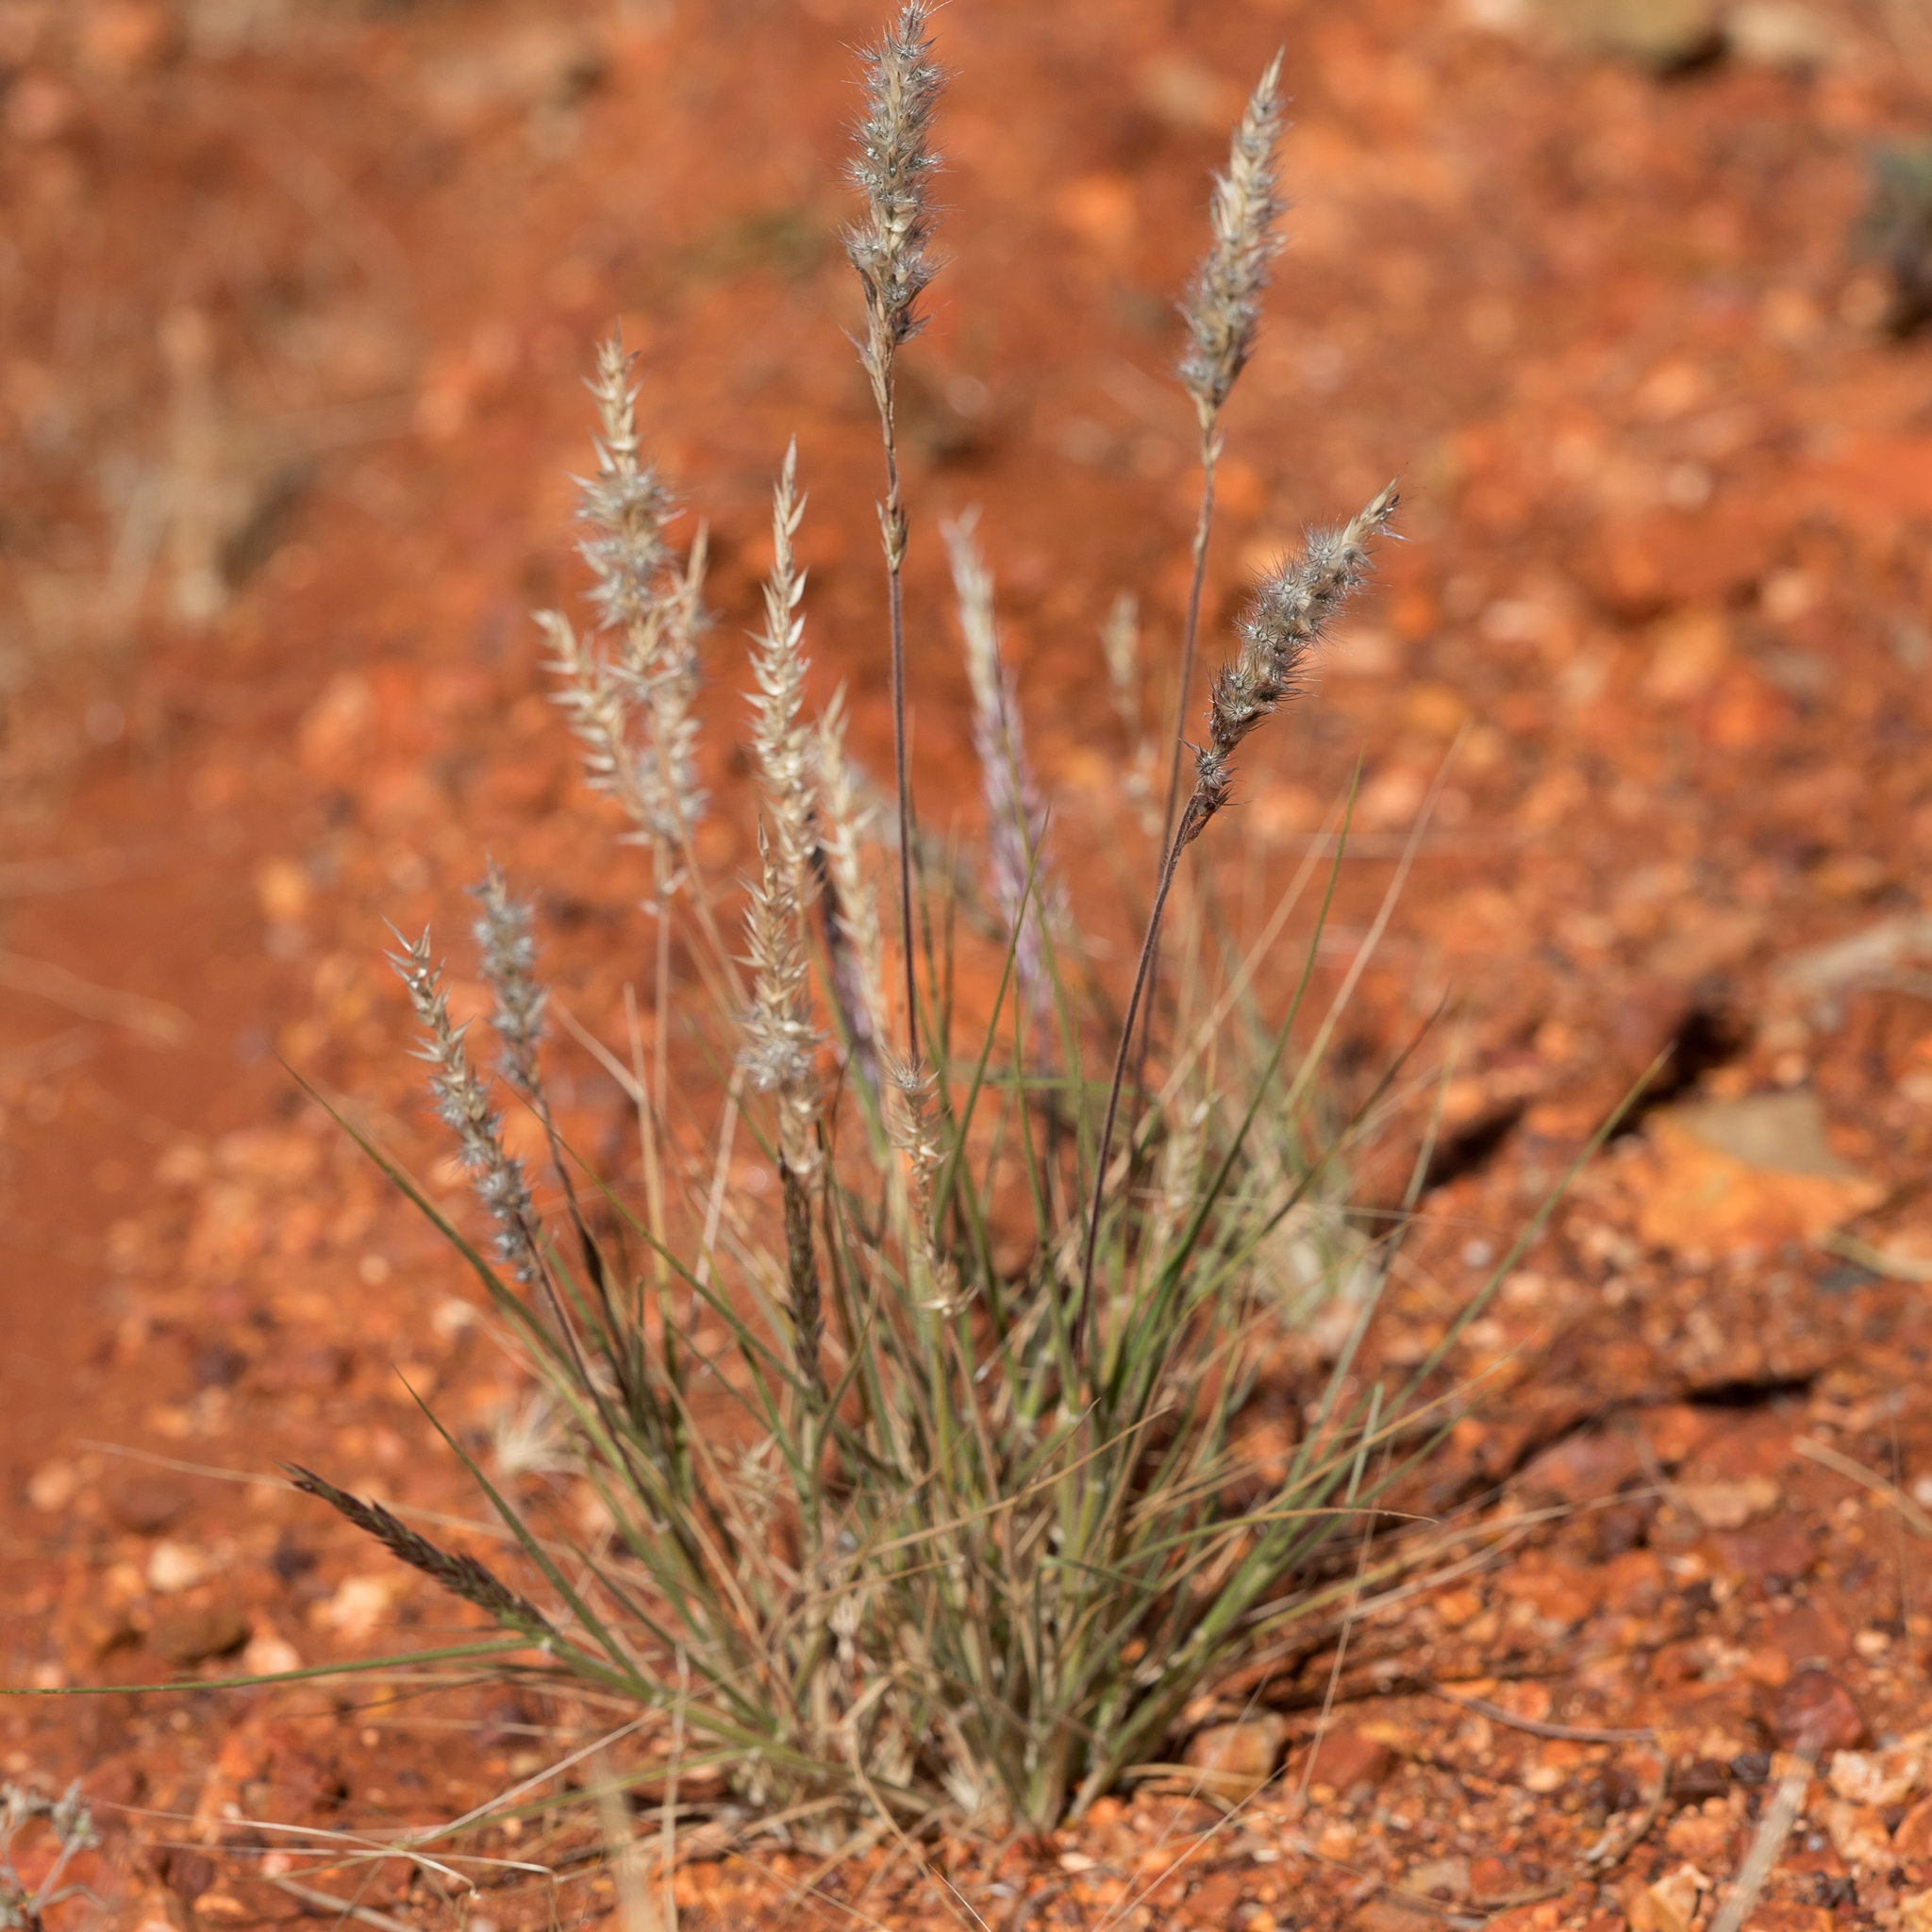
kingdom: Plantae
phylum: Tracheophyta
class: Liliopsida
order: Poales
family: Poaceae
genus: Enneapogon
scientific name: Enneapogon polyphyllus
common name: Leafy nineawn
